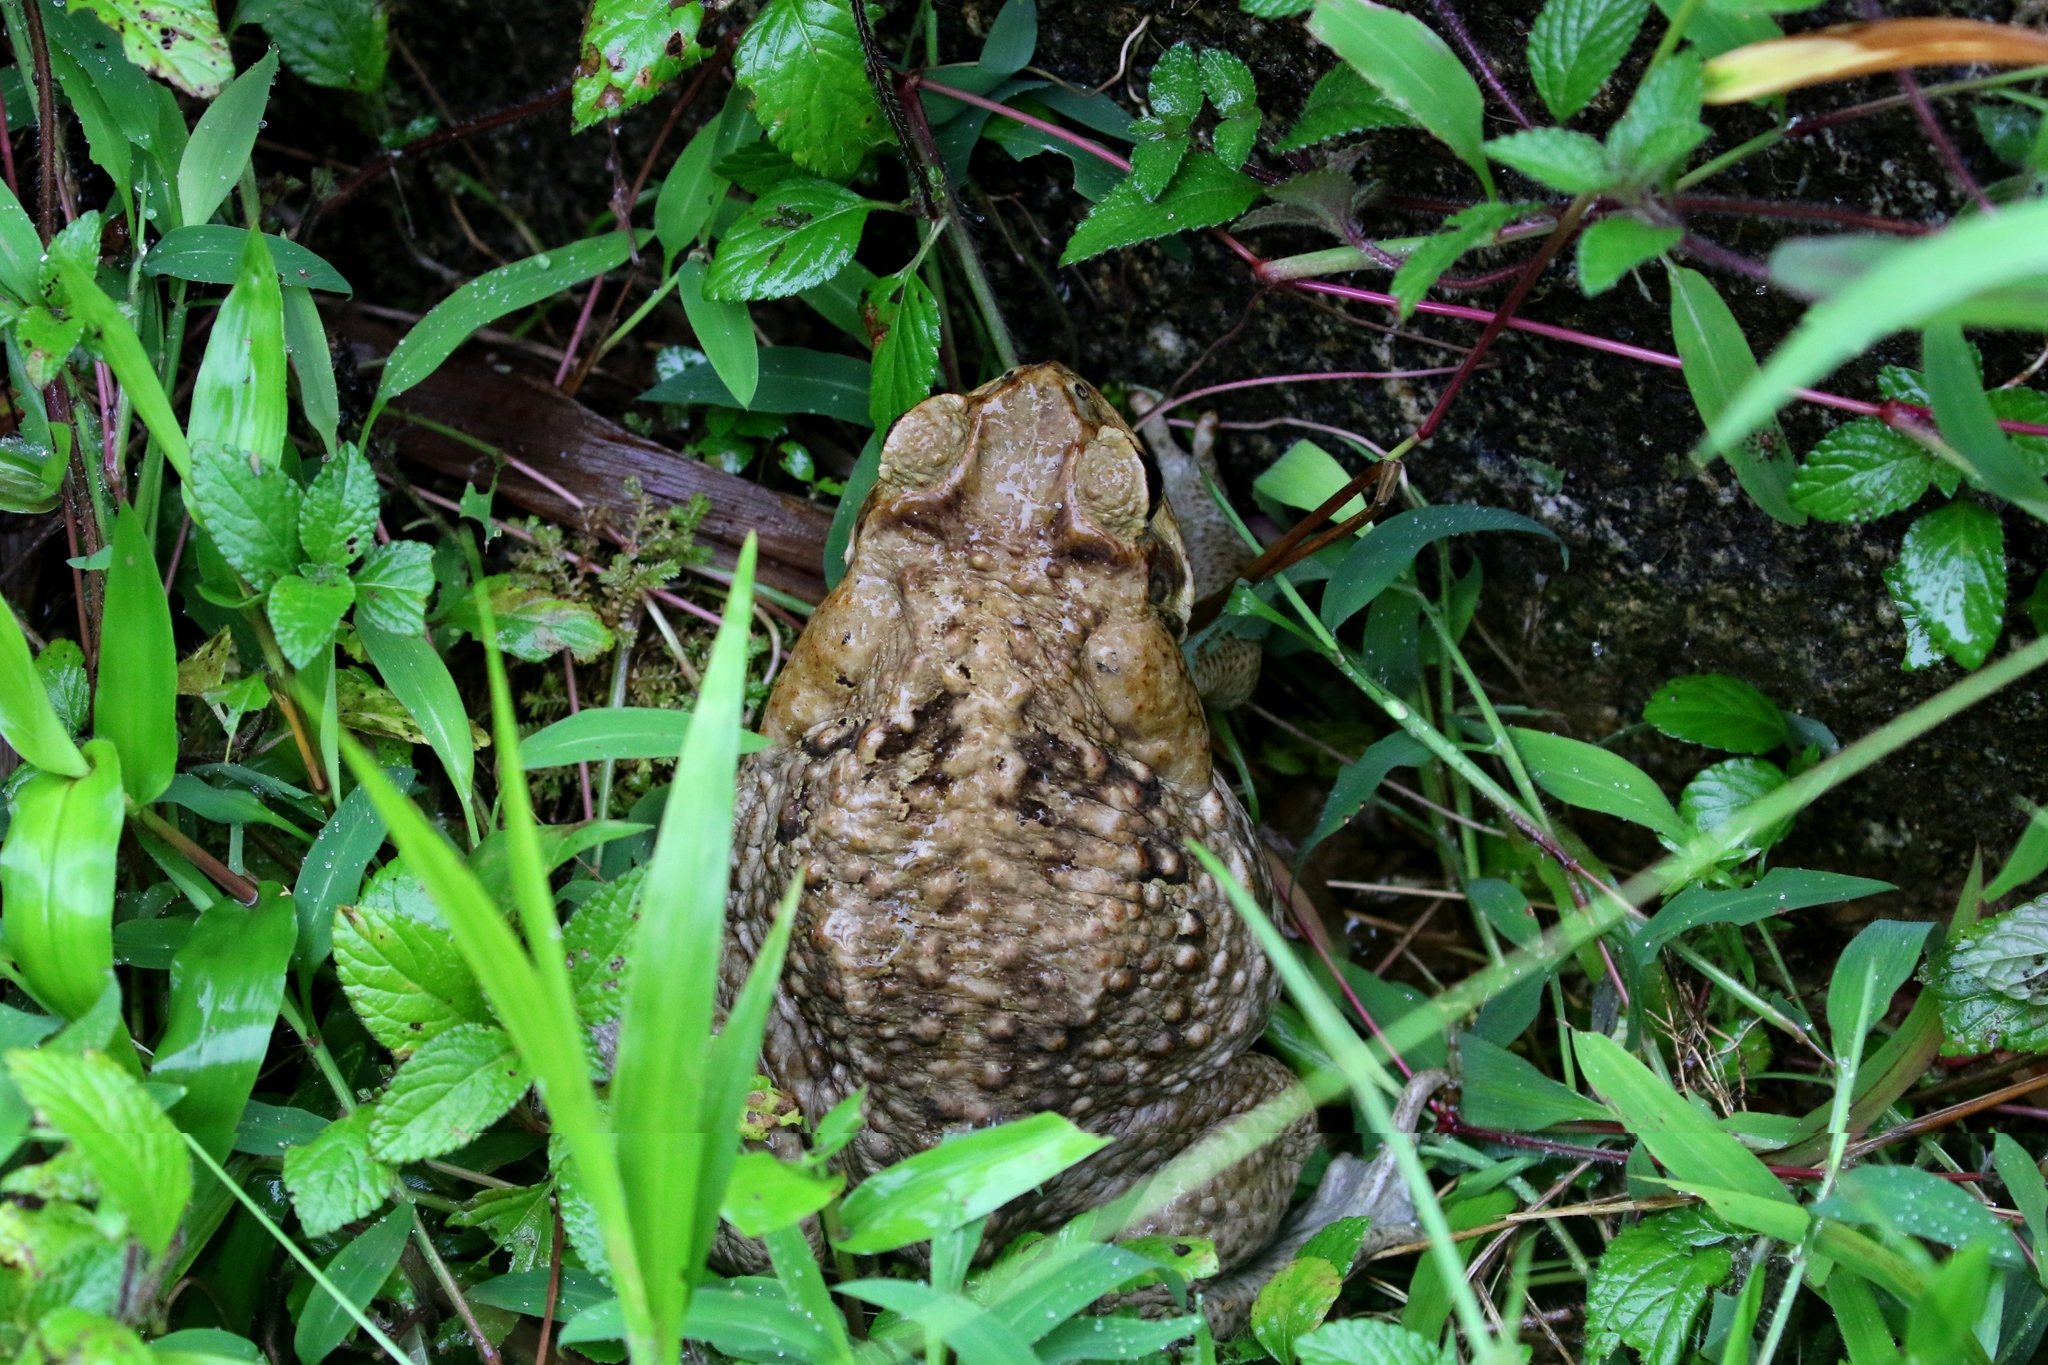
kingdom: Animalia
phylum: Chordata
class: Amphibia
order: Anura
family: Bufonidae
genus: Rhinella
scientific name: Rhinella horribilis
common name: Mesoamerican cane toad
